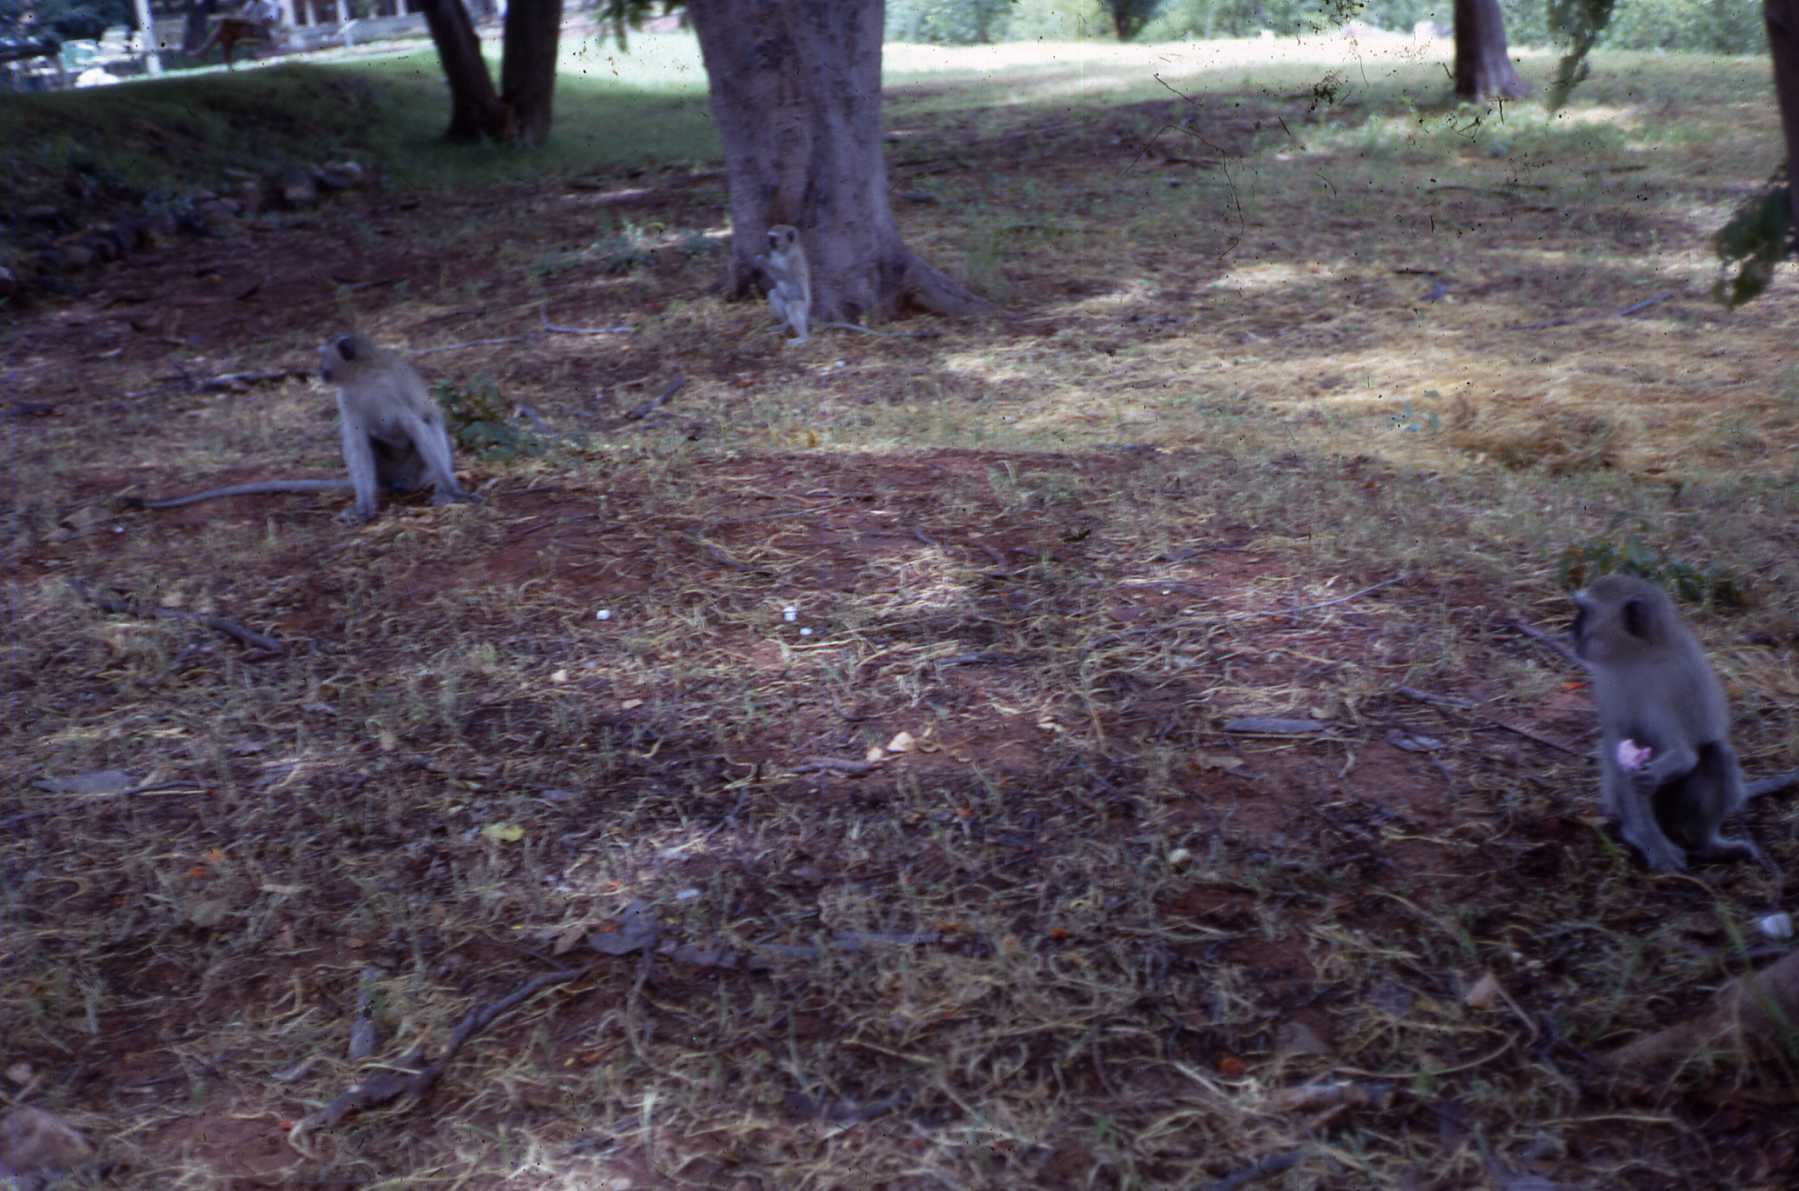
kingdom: Animalia
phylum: Chordata
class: Mammalia
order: Primates
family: Cercopithecidae
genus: Chlorocebus
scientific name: Chlorocebus pygerythrus
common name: Vervet monkey
